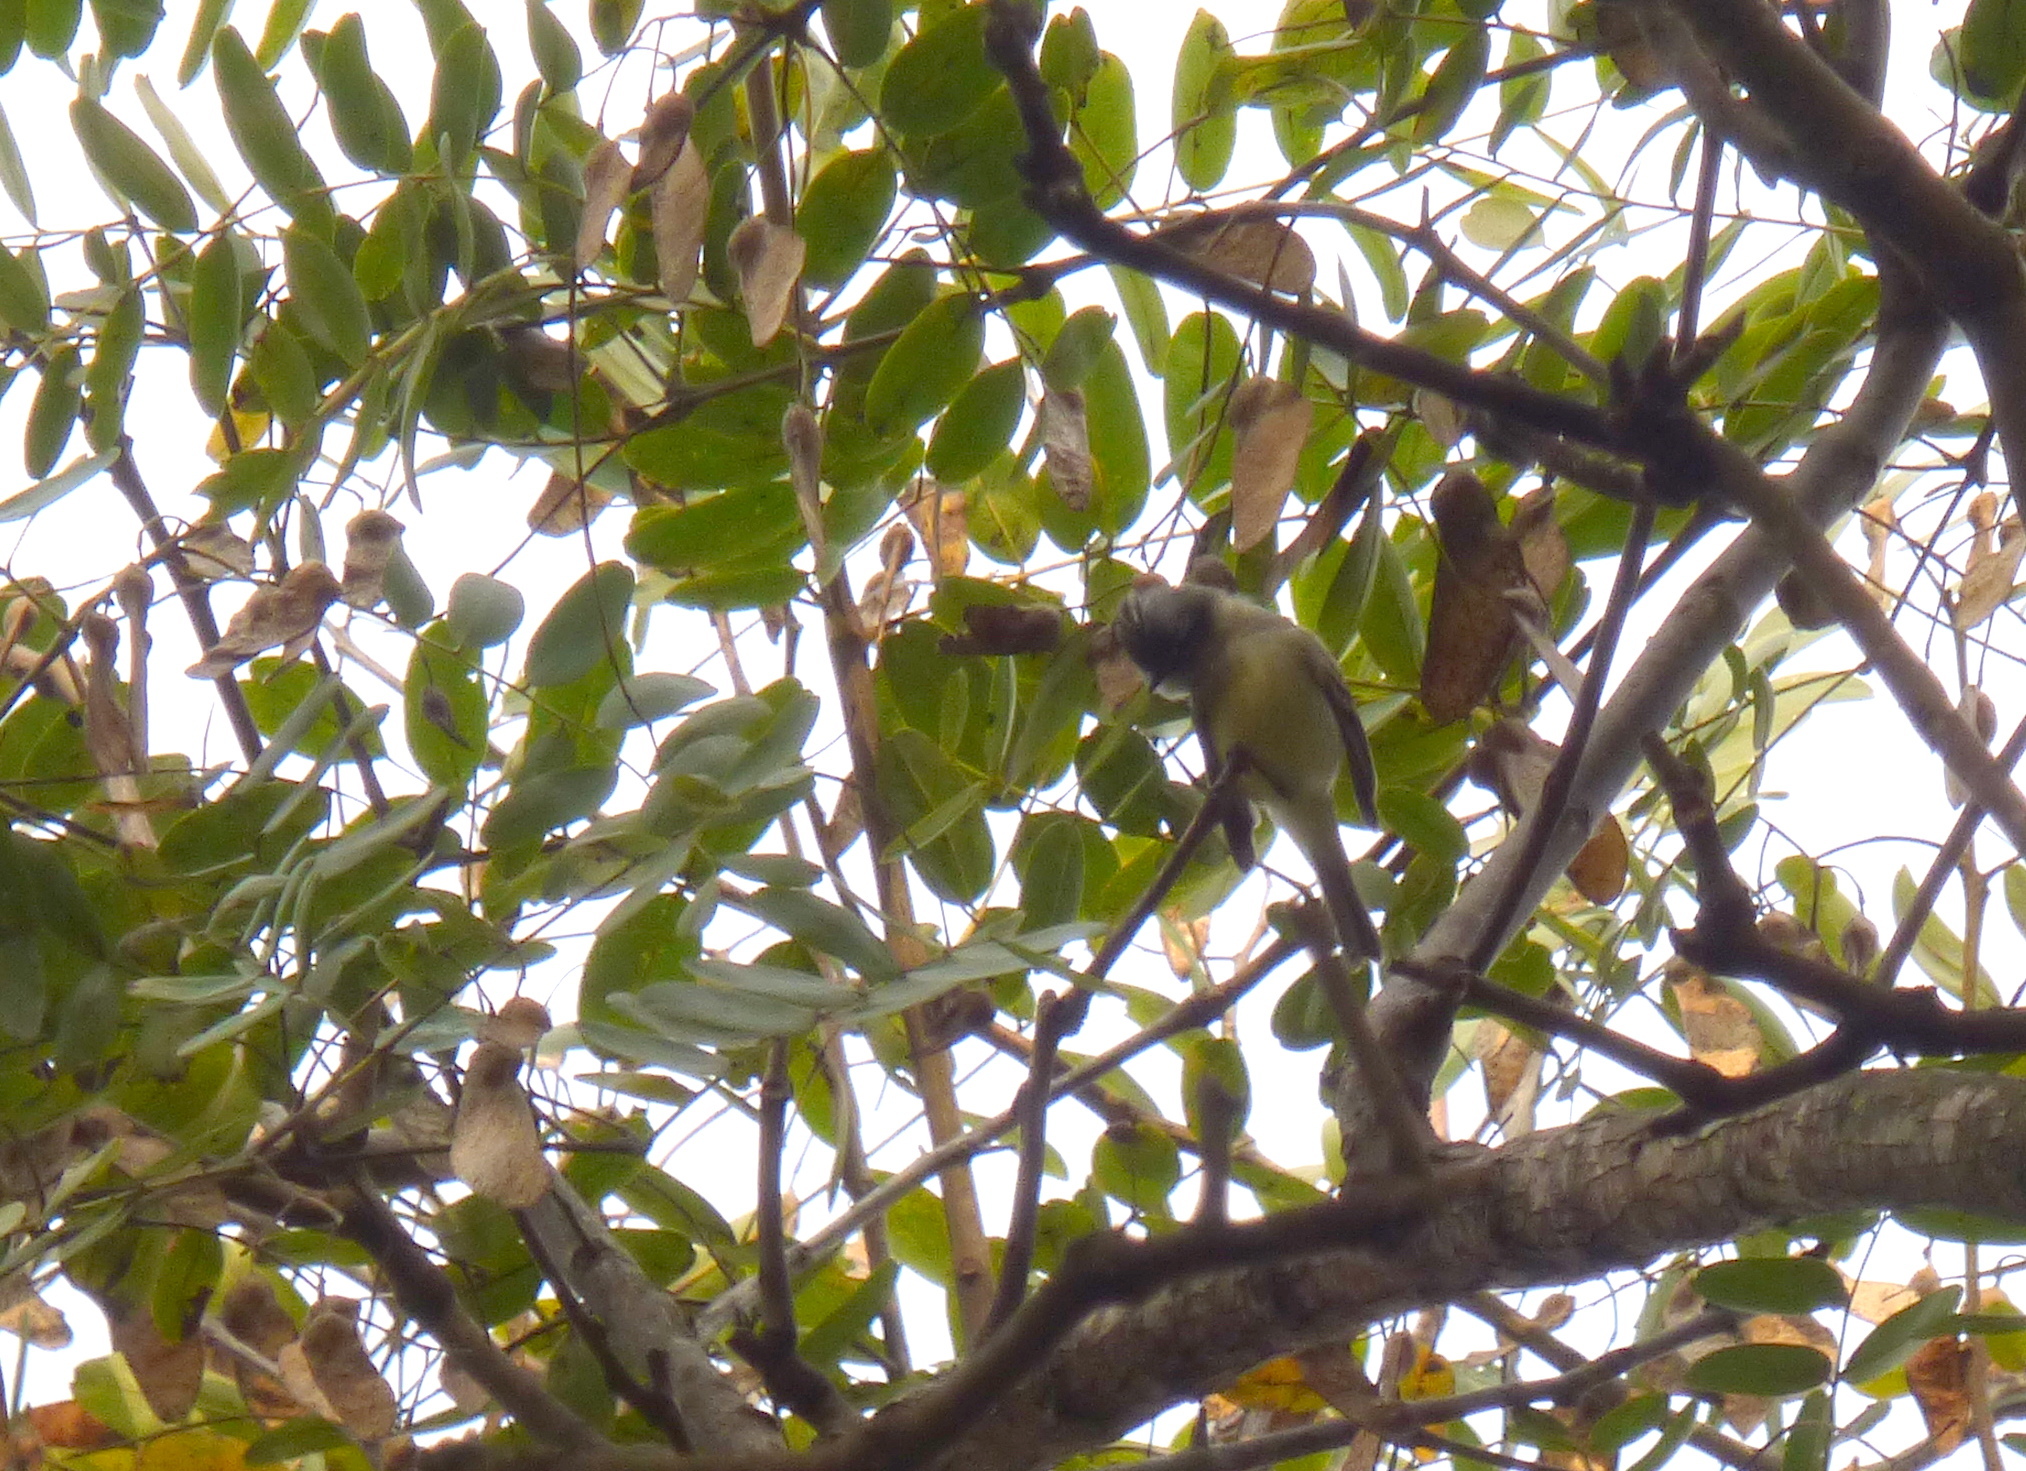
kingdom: Animalia
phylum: Chordata
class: Aves
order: Passeriformes
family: Tyrannidae
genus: Serpophaga
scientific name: Serpophaga griseicapilla
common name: Straneck's tyrannulet
